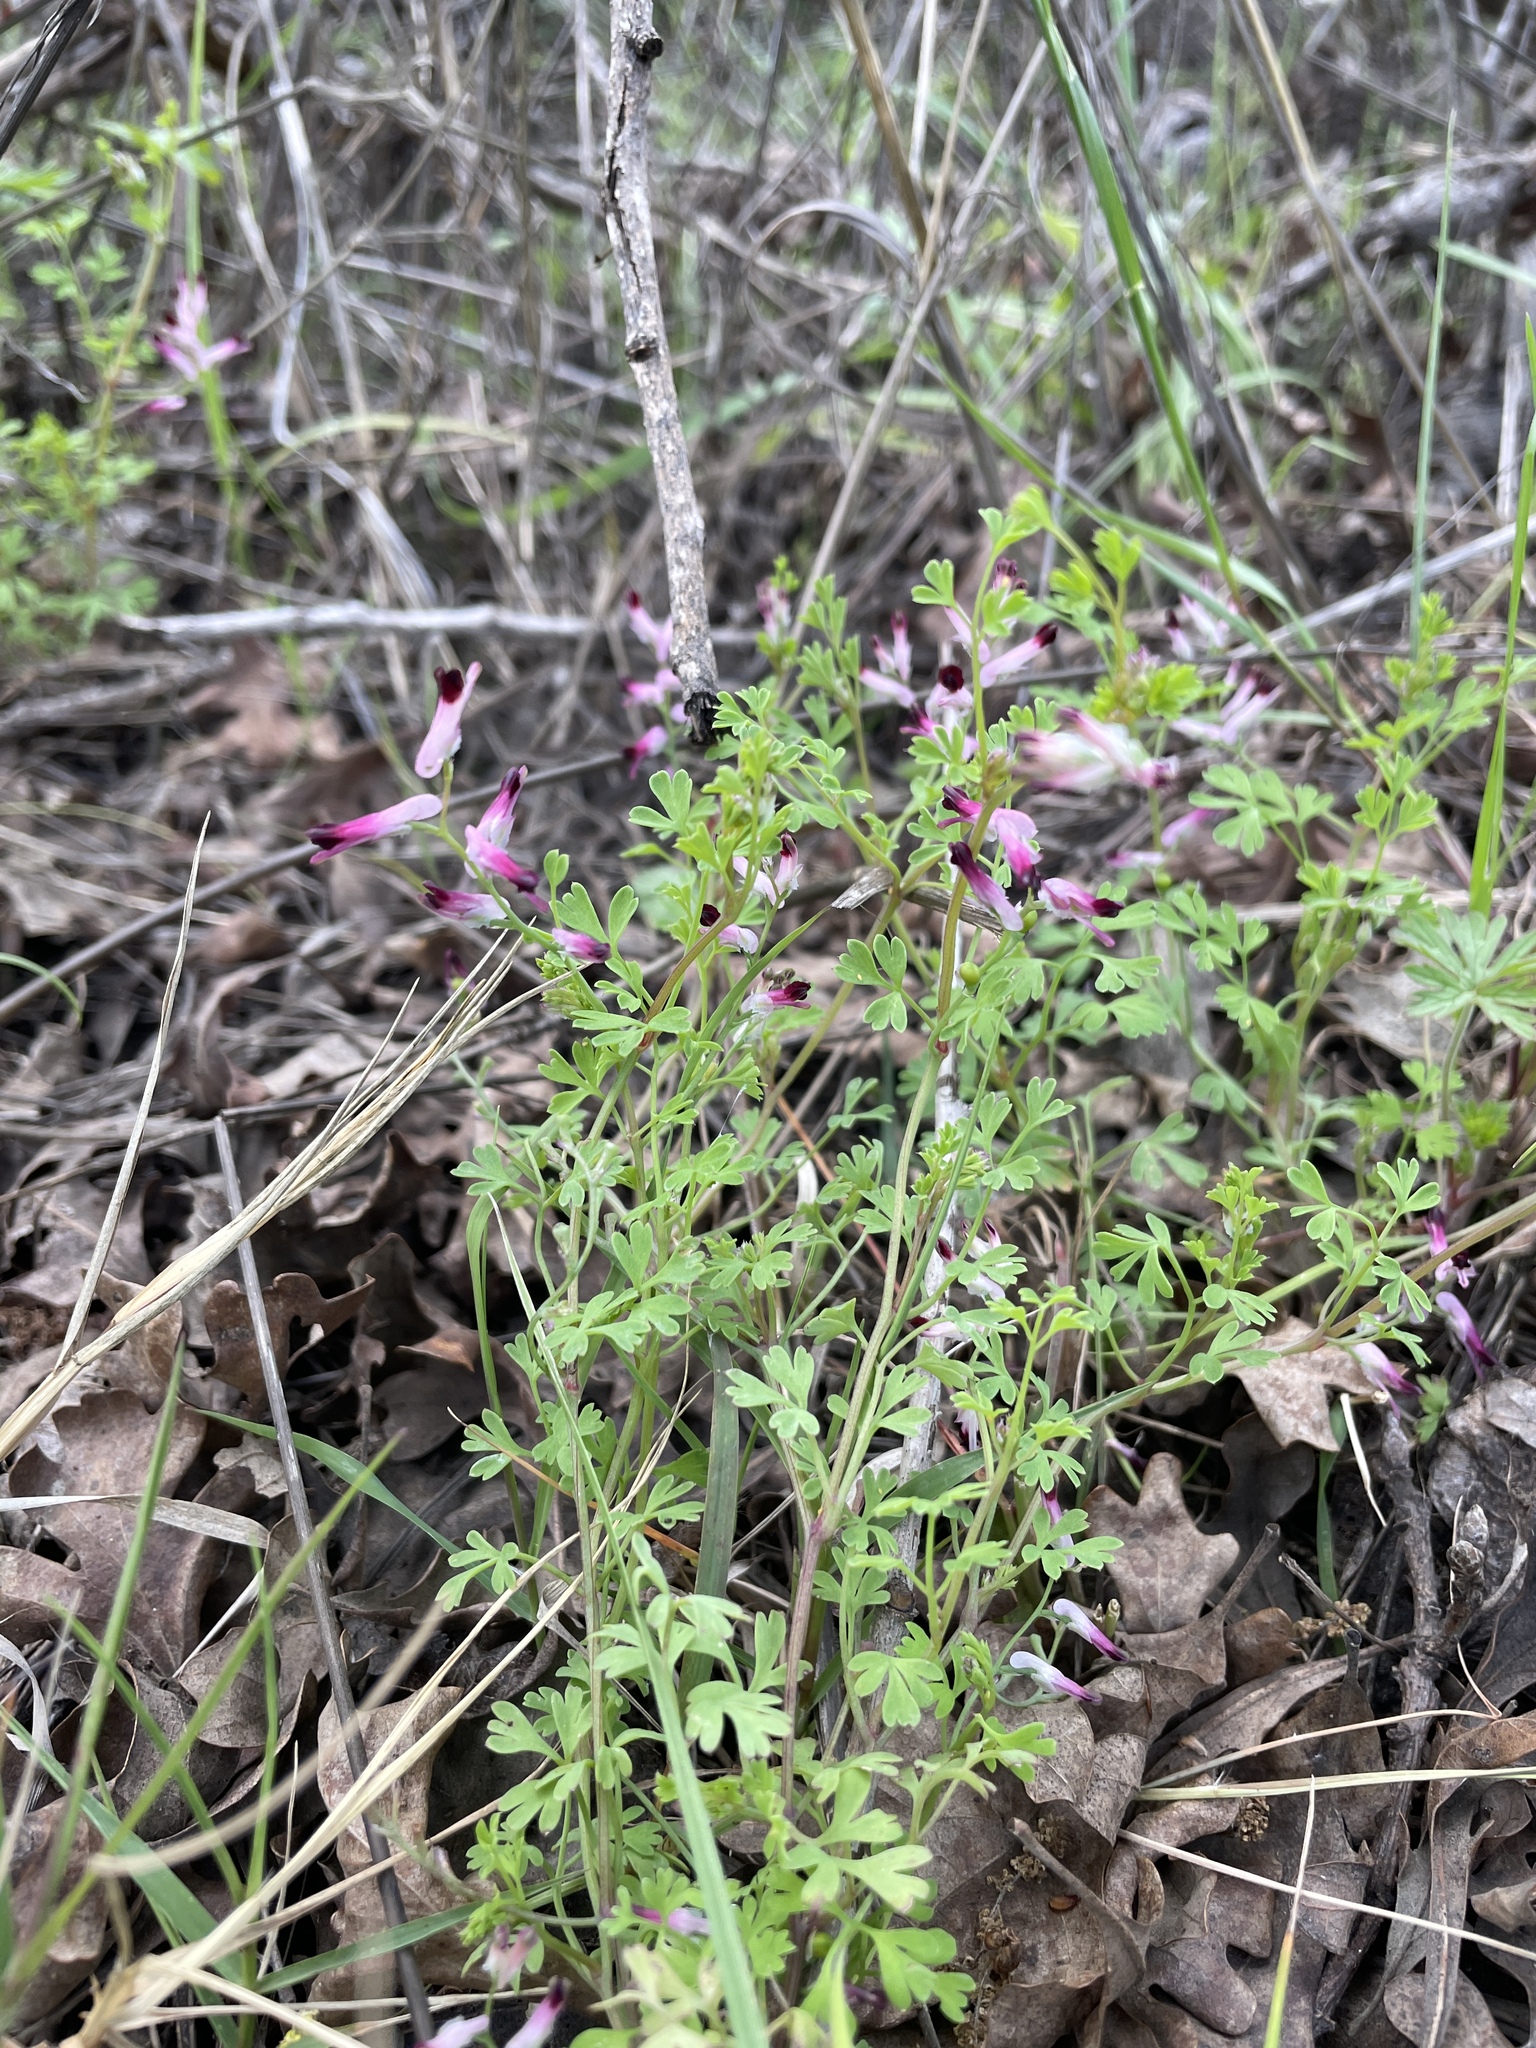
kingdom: Plantae
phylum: Tracheophyta
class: Magnoliopsida
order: Ranunculales
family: Papaveraceae
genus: Fumaria
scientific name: Fumaria muralis
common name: Common ramping-fumitory
